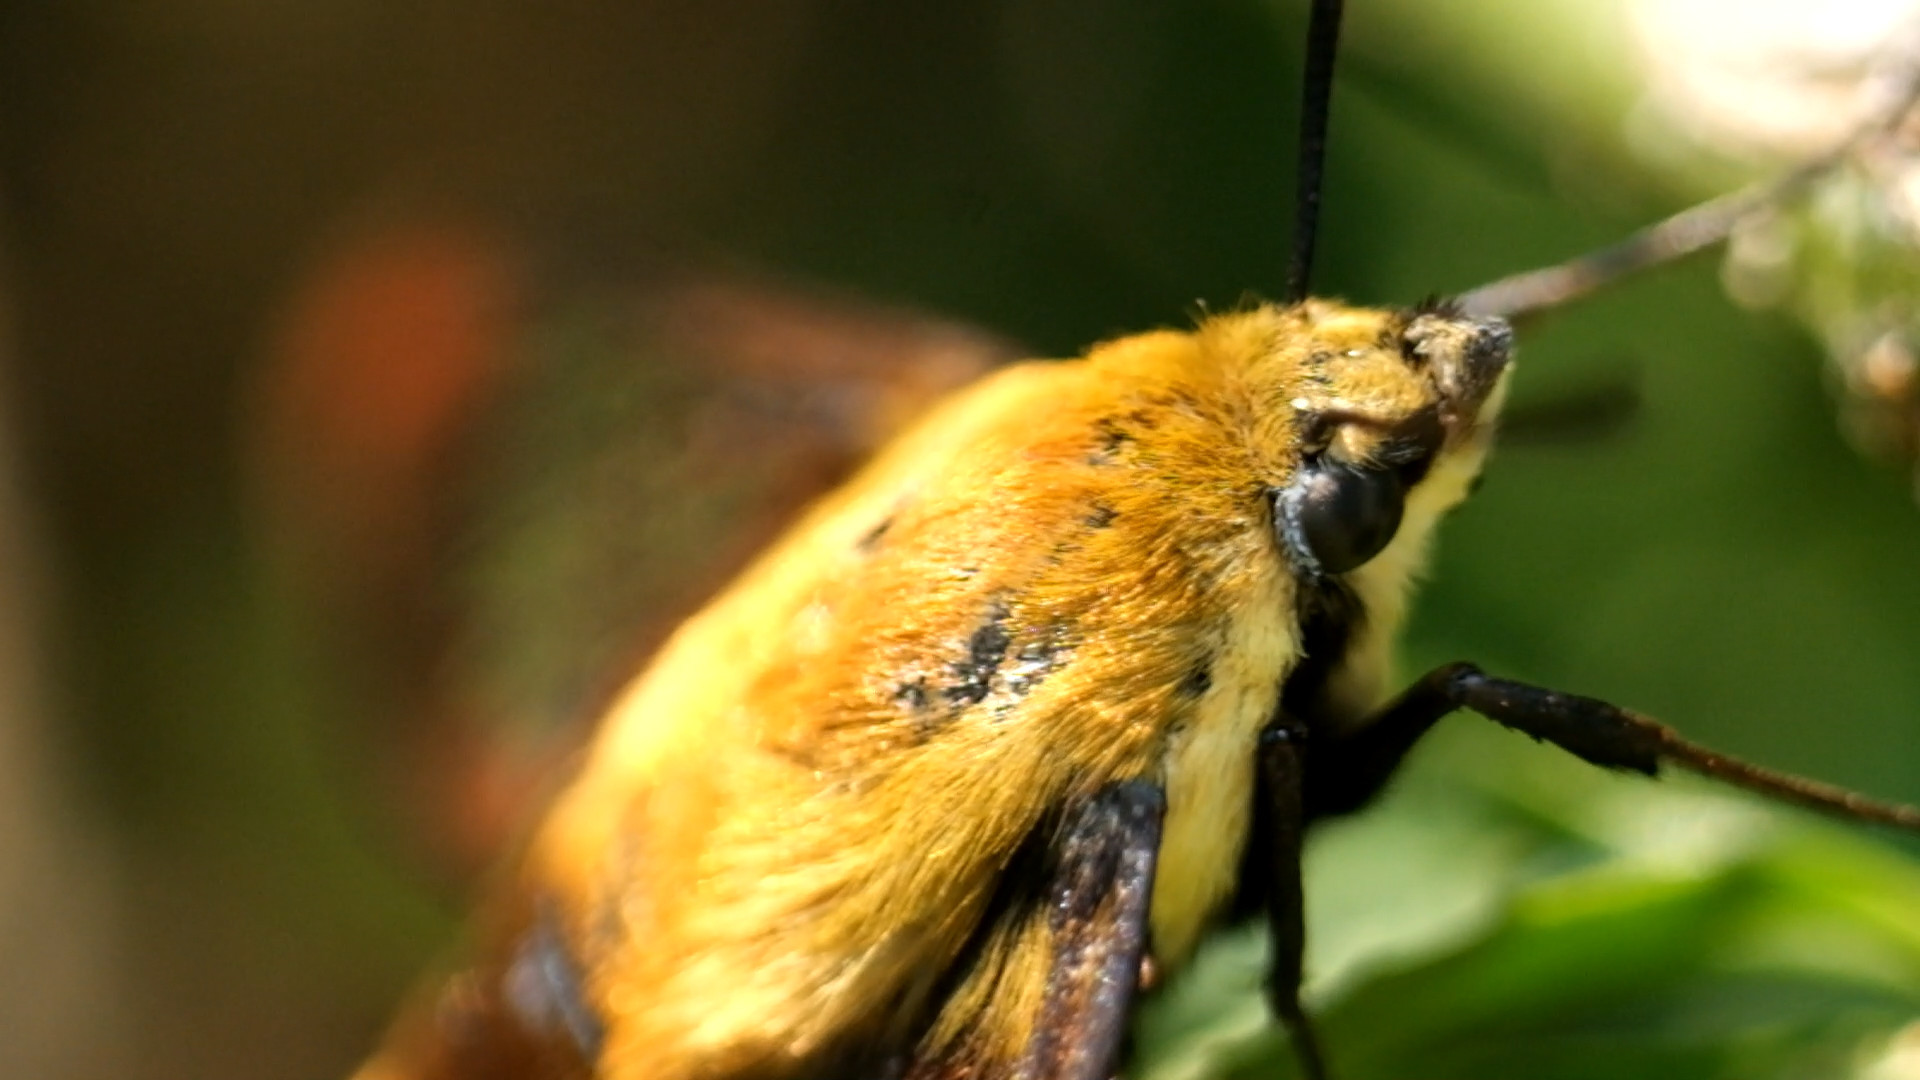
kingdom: Animalia
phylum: Arthropoda
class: Insecta
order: Lepidoptera
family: Sphingidae
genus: Hemaris
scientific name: Hemaris diffinis
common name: Bumblebee moth
